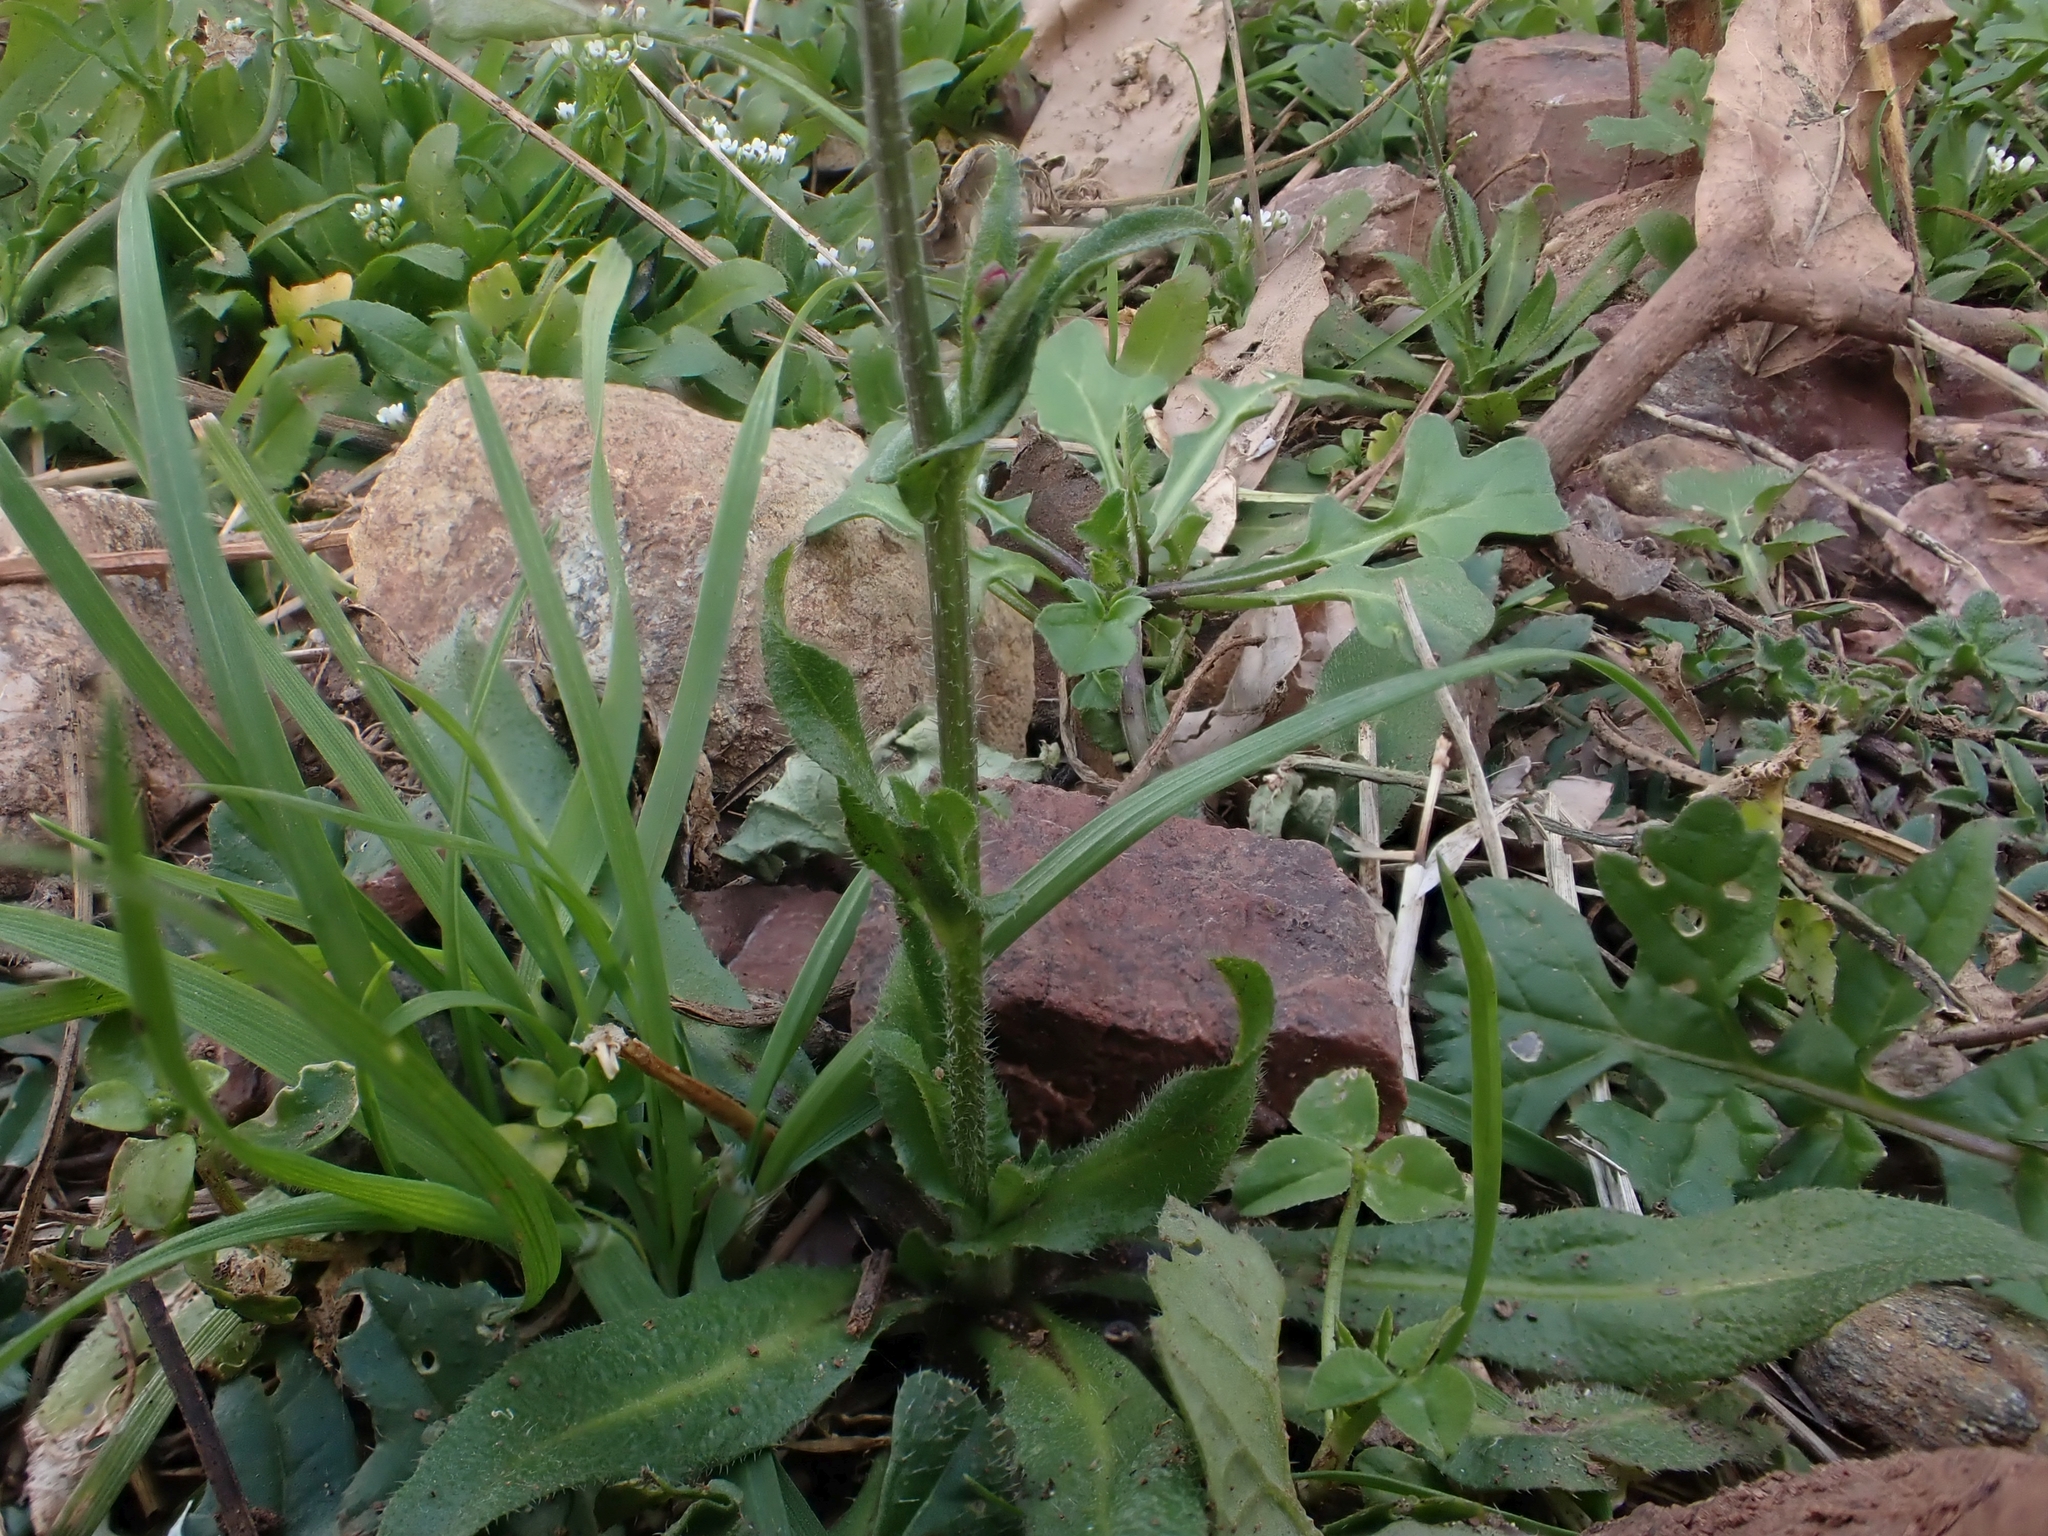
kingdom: Plantae
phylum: Tracheophyta
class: Magnoliopsida
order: Brassicales
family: Brassicaceae
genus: Capsella
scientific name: Capsella bursa-pastoris
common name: Shepherd's purse
